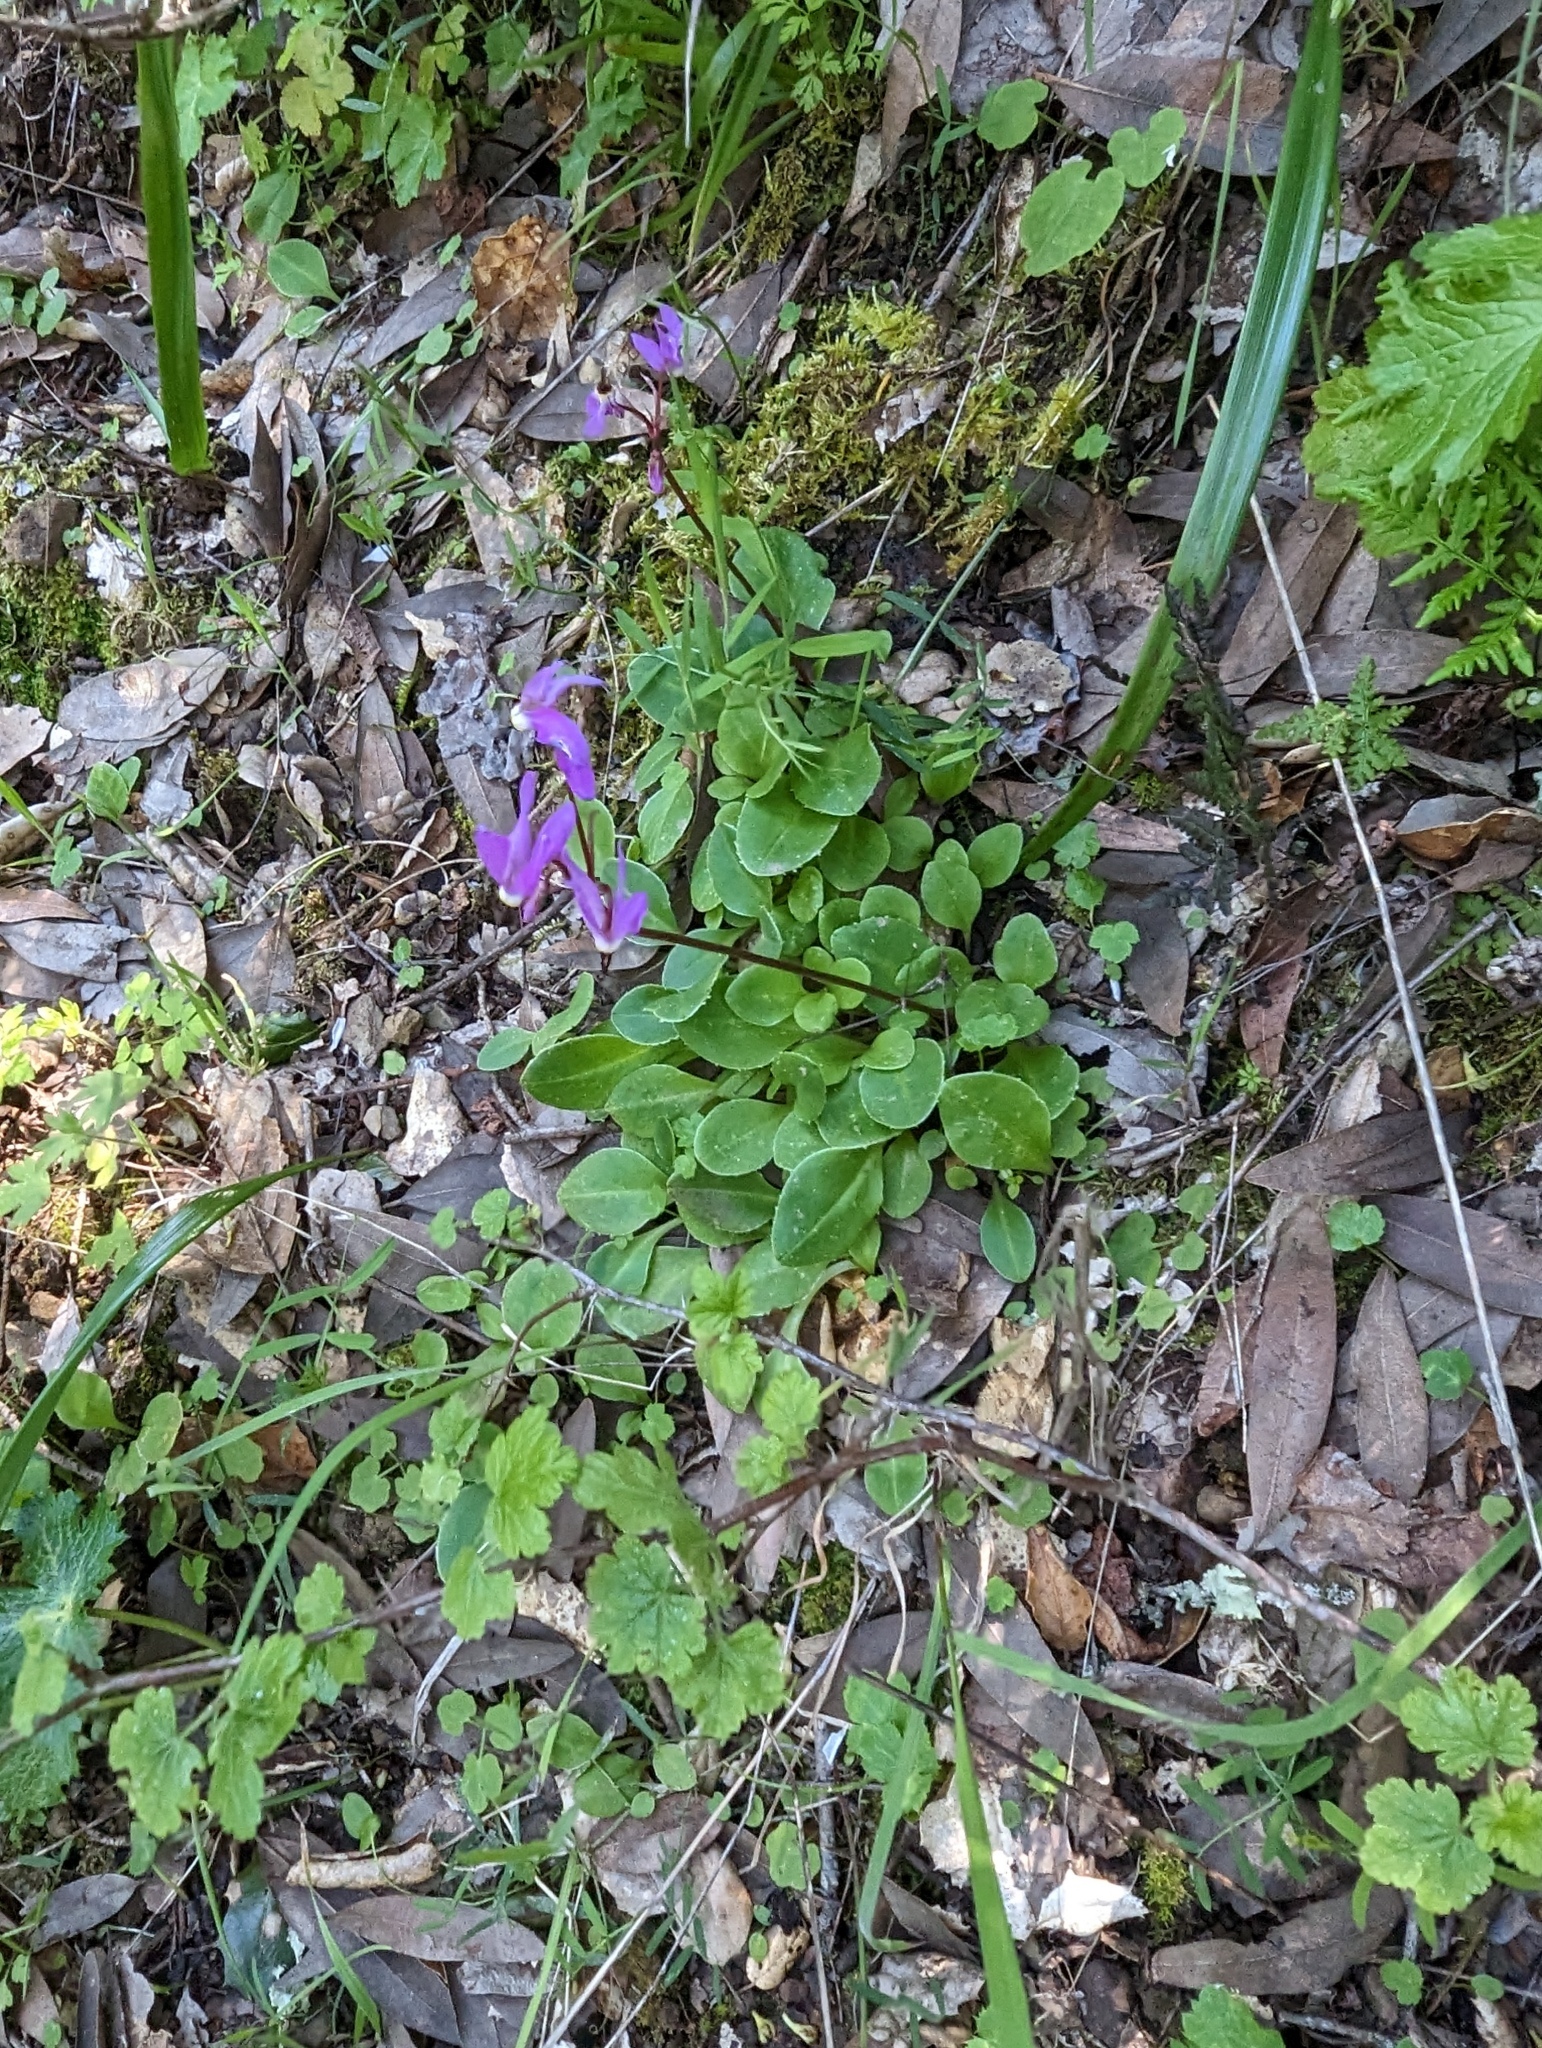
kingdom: Plantae
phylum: Tracheophyta
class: Magnoliopsida
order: Ericales
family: Primulaceae
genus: Dodecatheon
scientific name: Dodecatheon hendersonii
